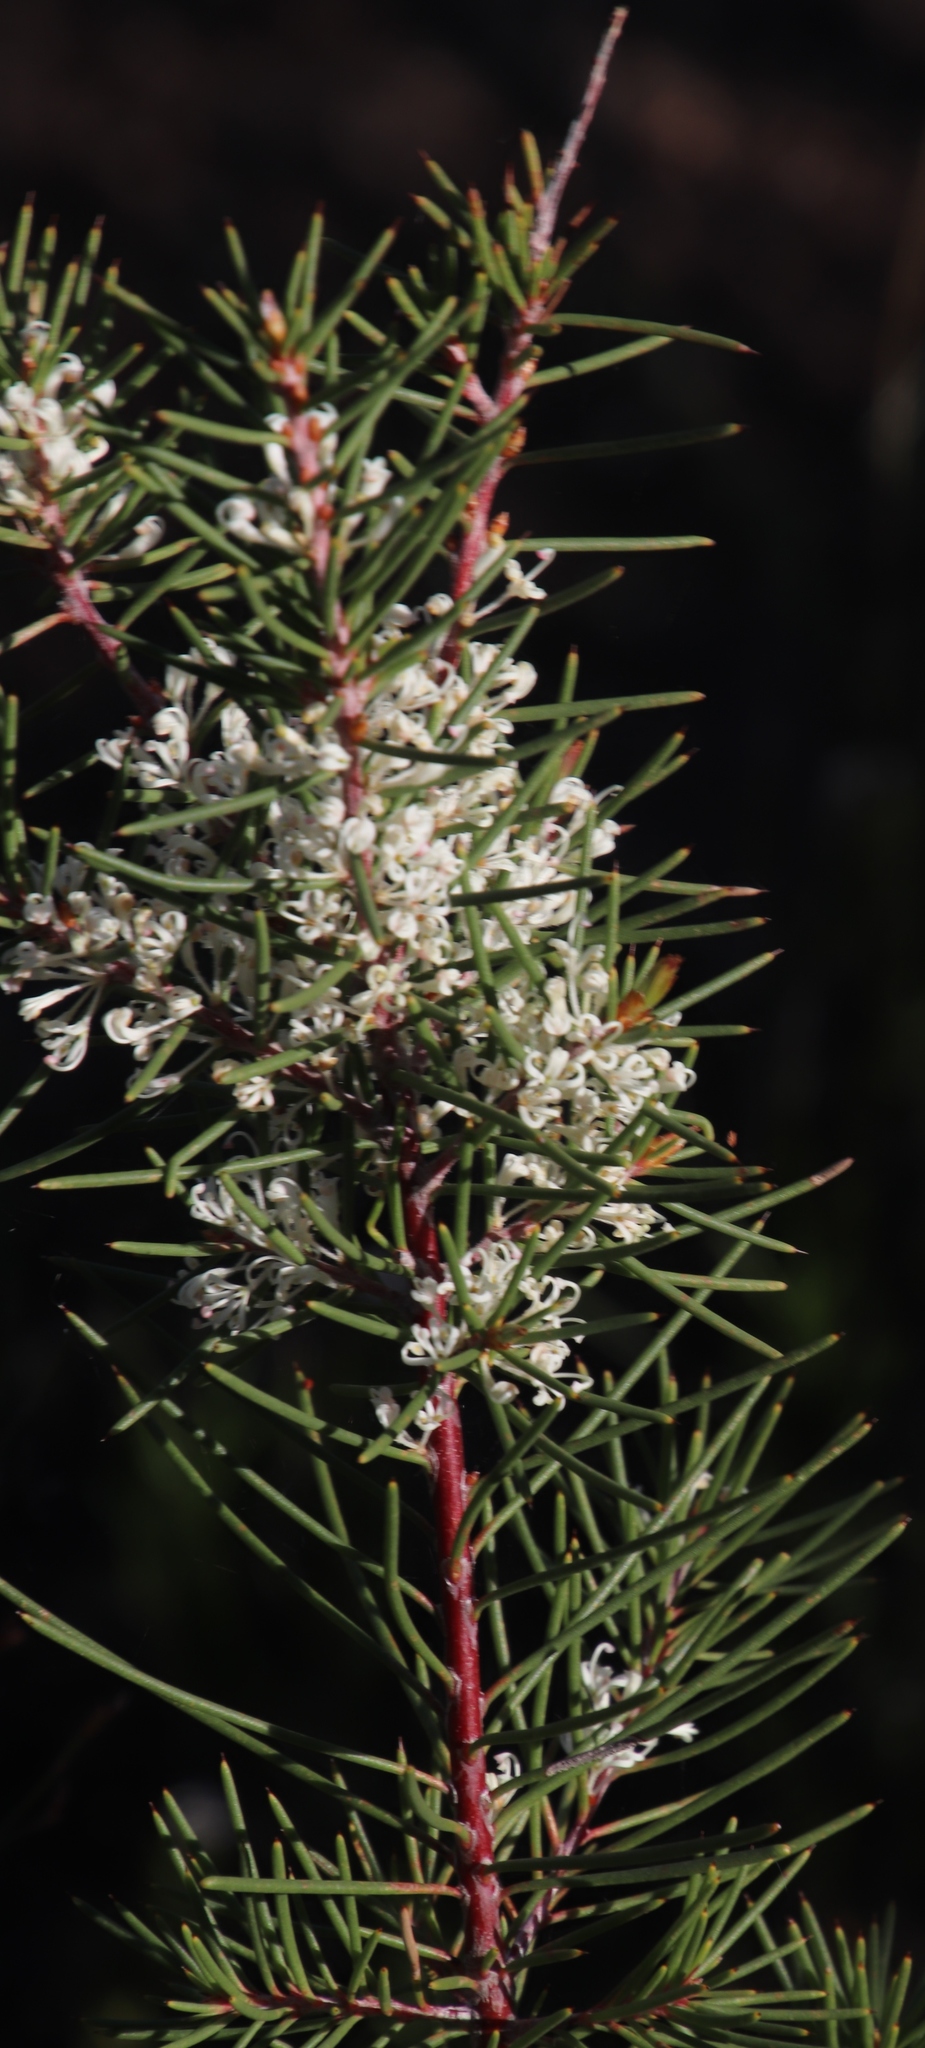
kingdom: Plantae
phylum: Tracheophyta
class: Magnoliopsida
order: Proteales
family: Proteaceae
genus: Hakea
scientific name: Hakea sericea
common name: Needle bush
